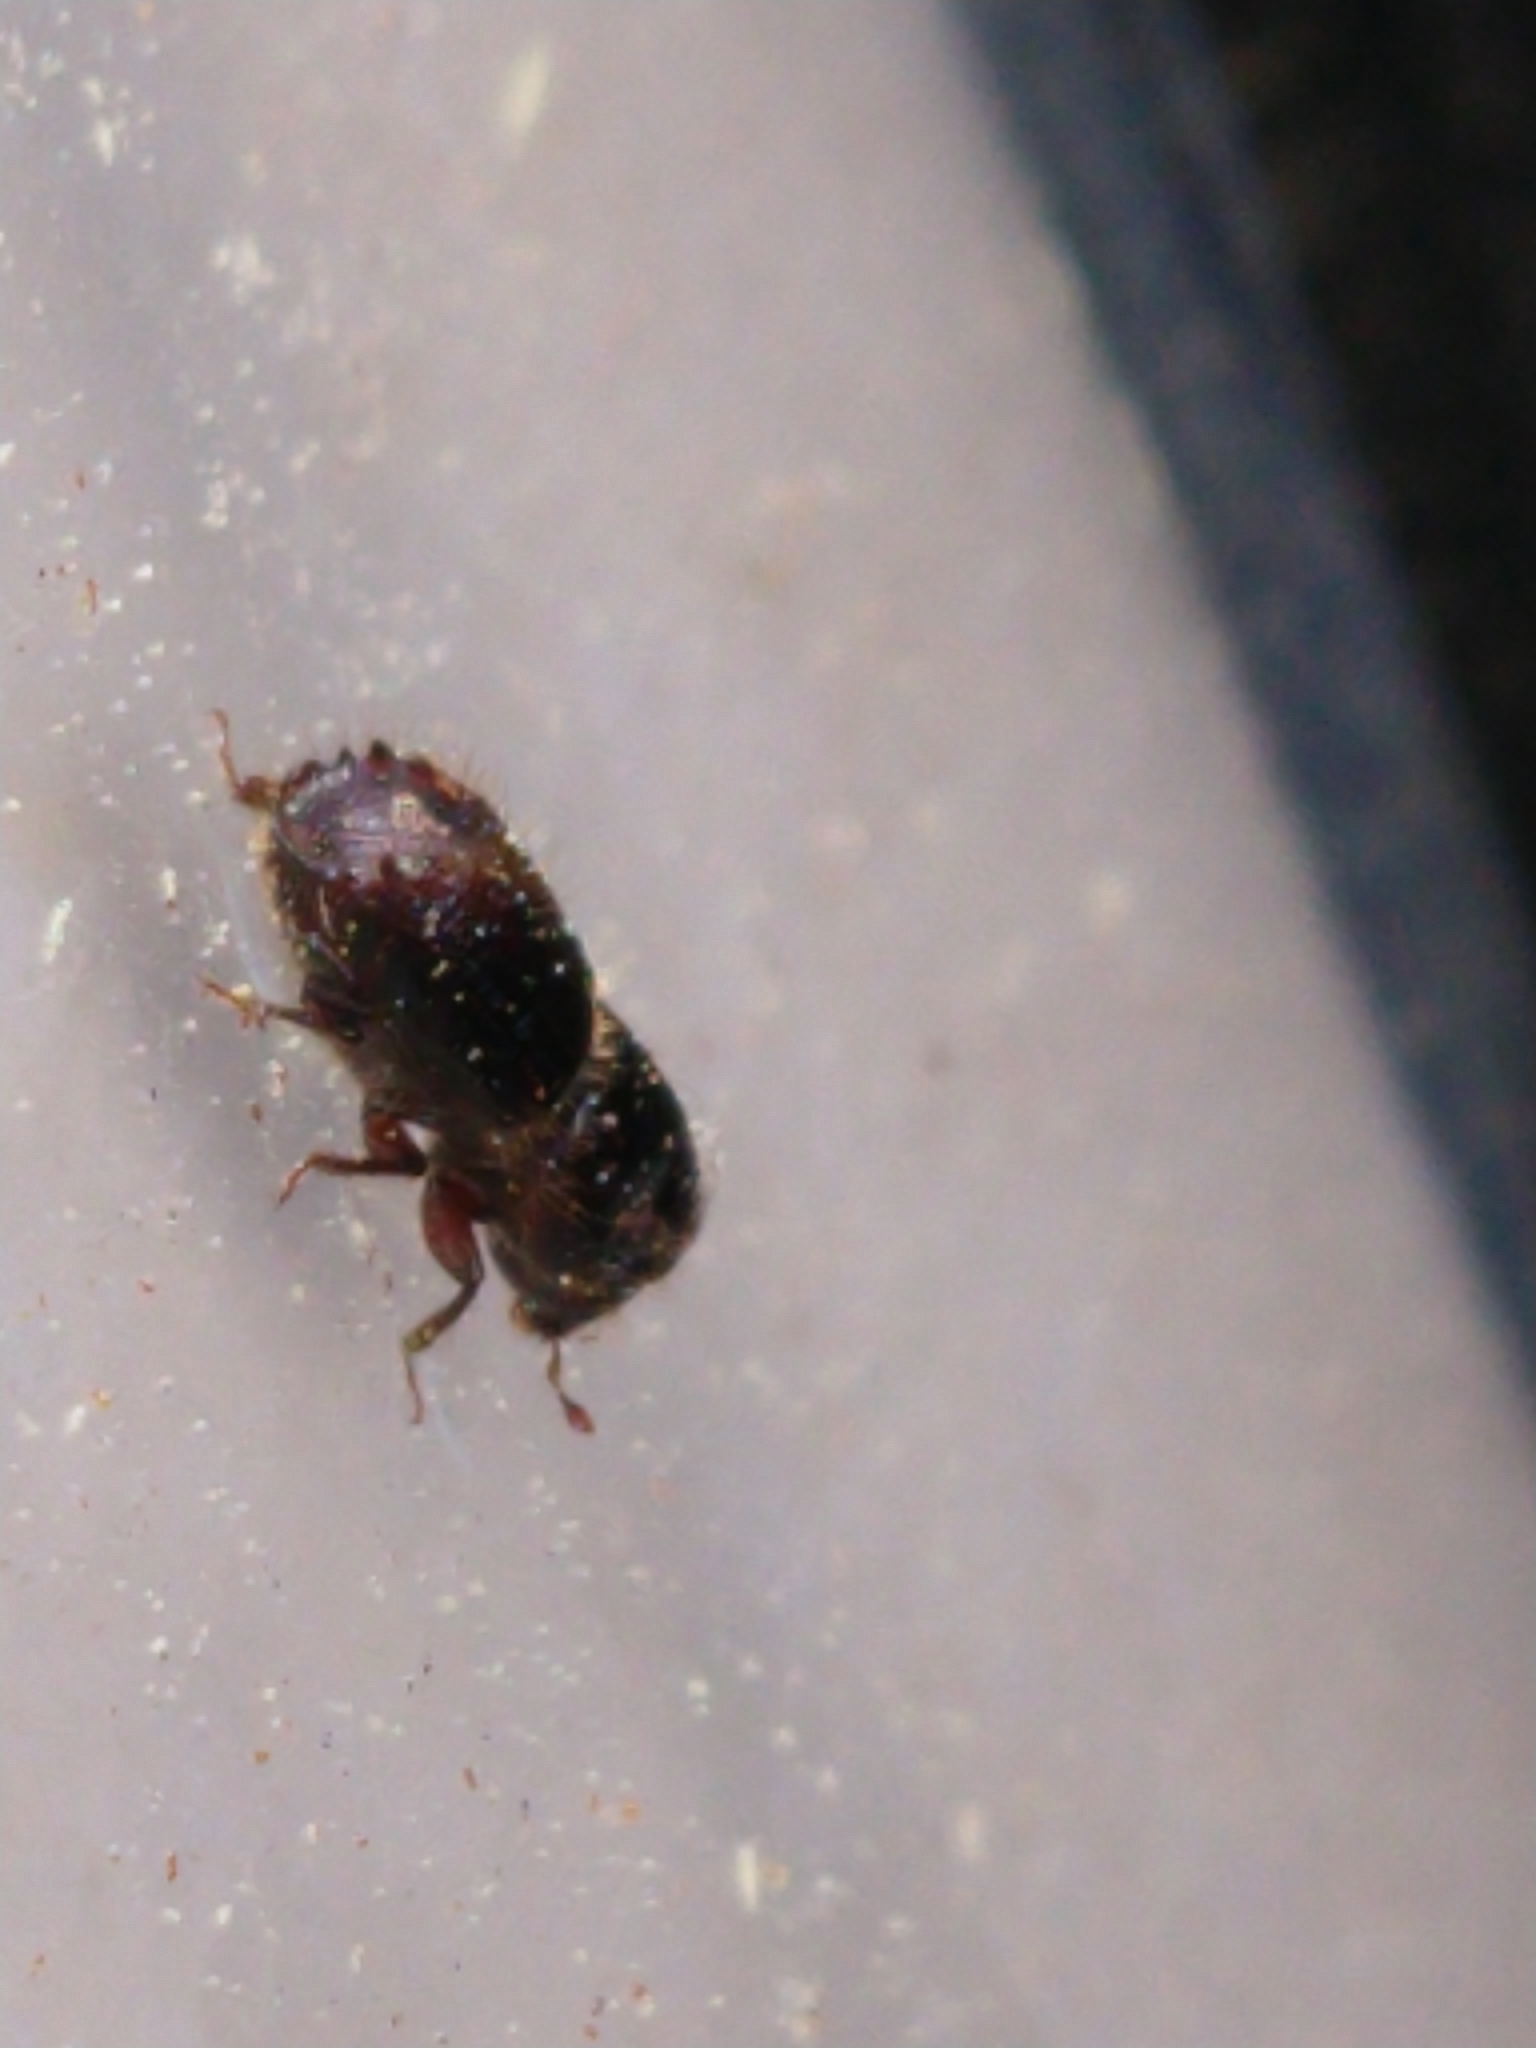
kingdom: Animalia
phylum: Arthropoda
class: Insecta
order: Coleoptera
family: Curculionidae
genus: Ips
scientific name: Ips typographus
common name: Eight-toothed spruce bark beetle
